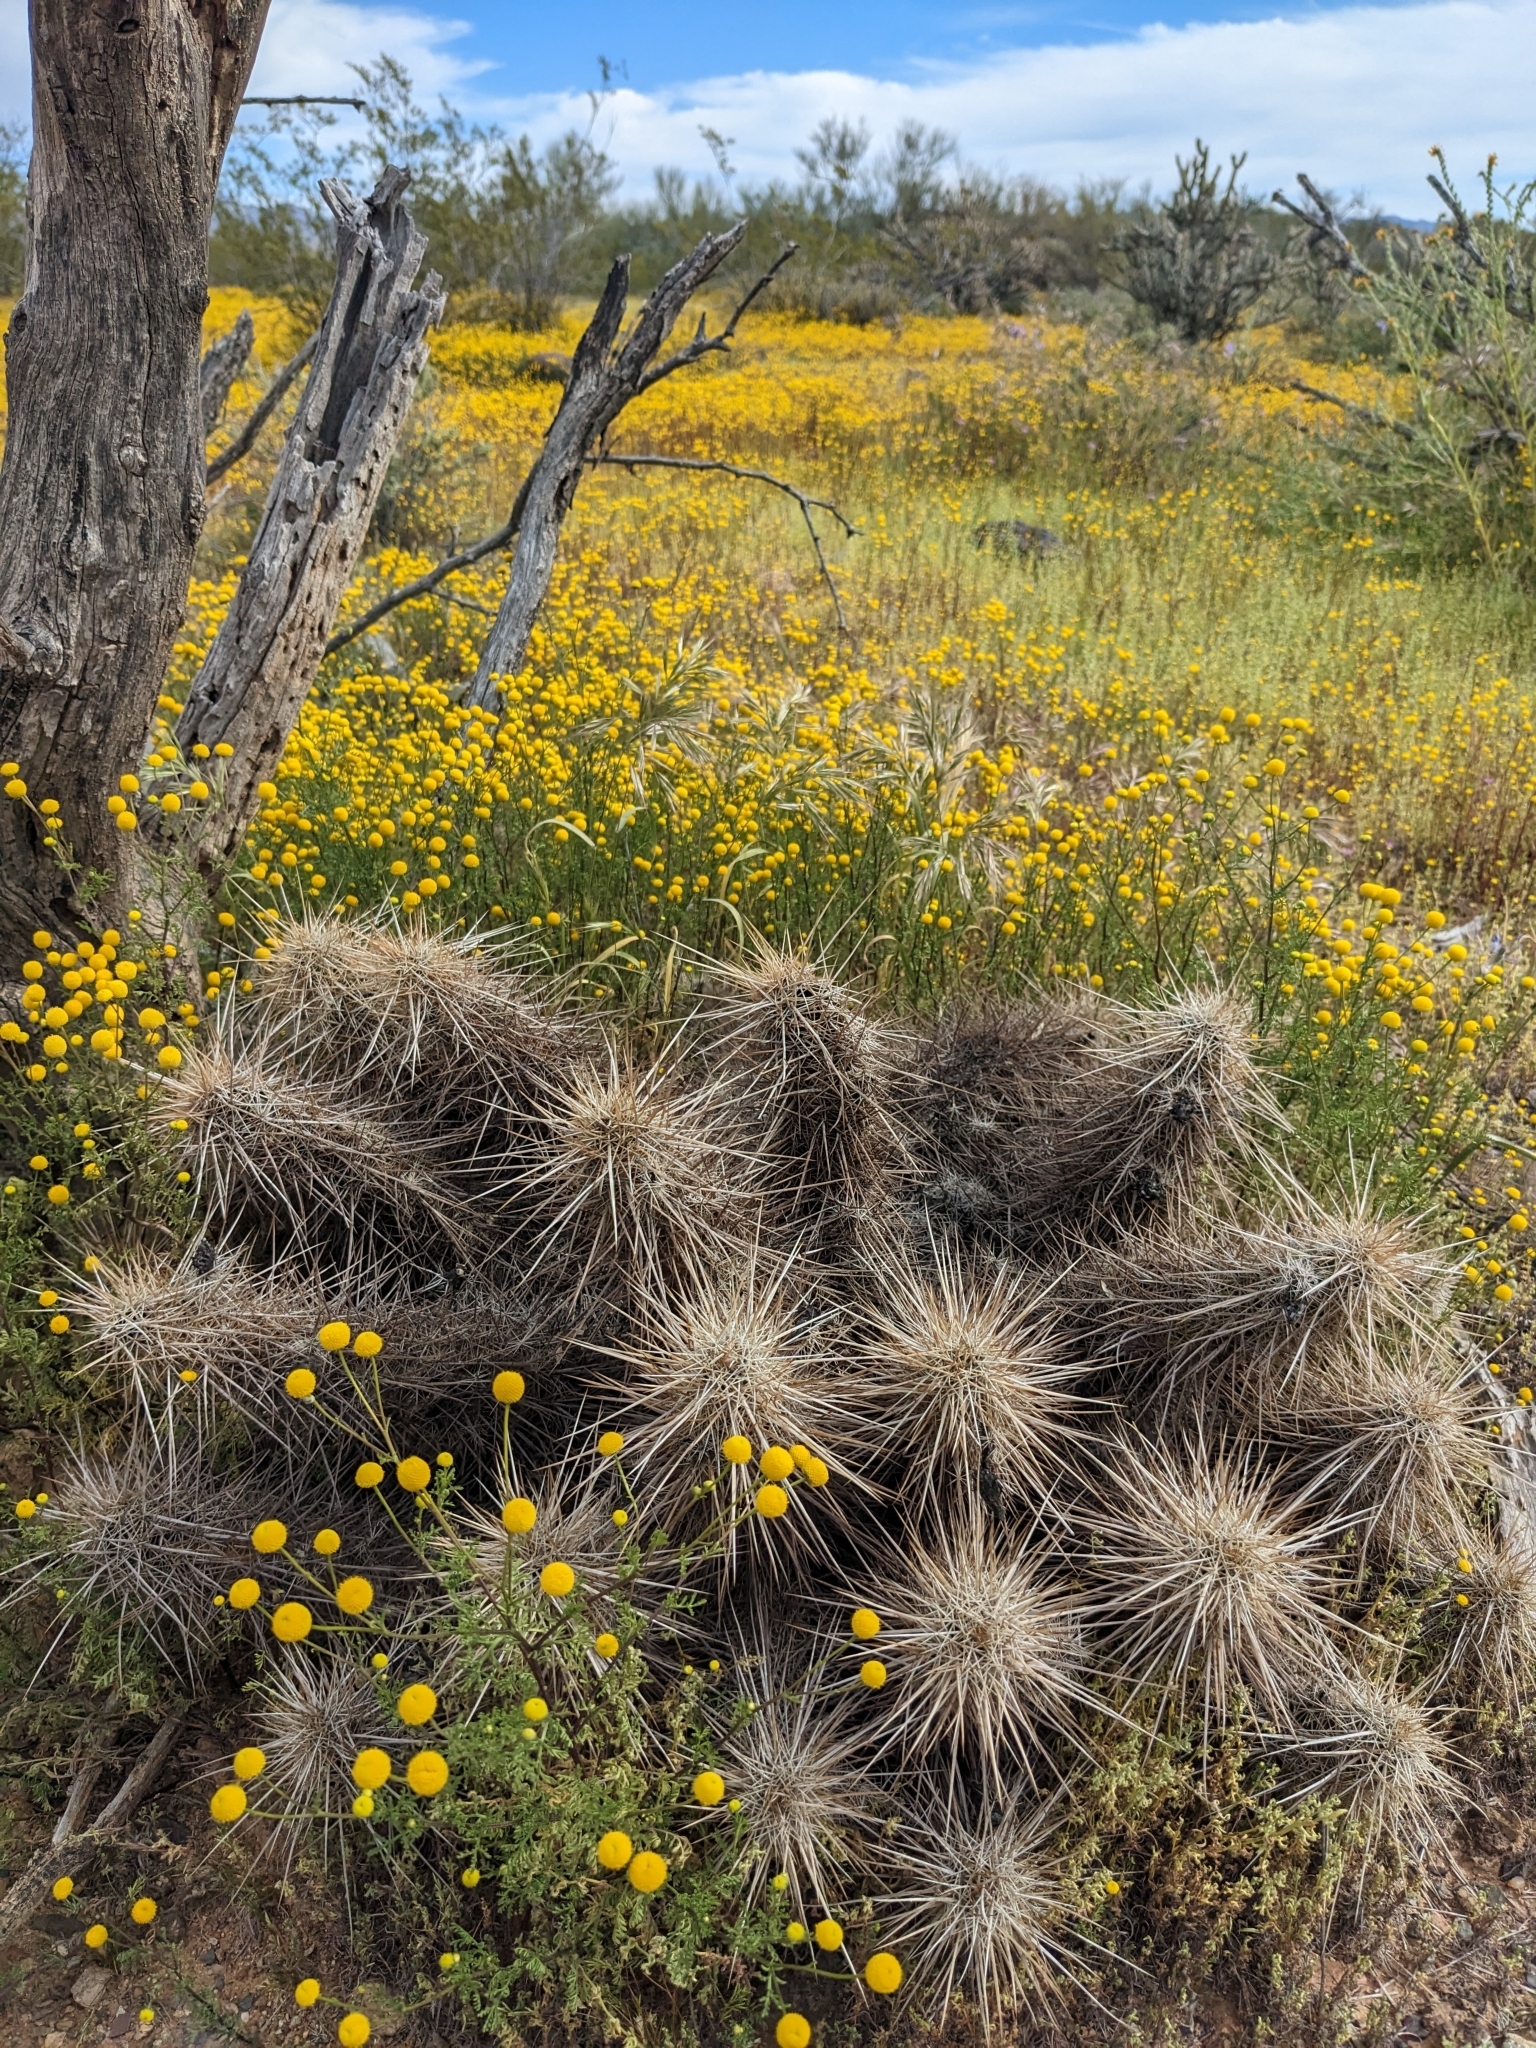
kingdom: Plantae
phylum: Tracheophyta
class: Magnoliopsida
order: Caryophyllales
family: Cactaceae
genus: Echinocereus
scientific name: Echinocereus engelmannii
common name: Engelmann's hedgehog cactus
